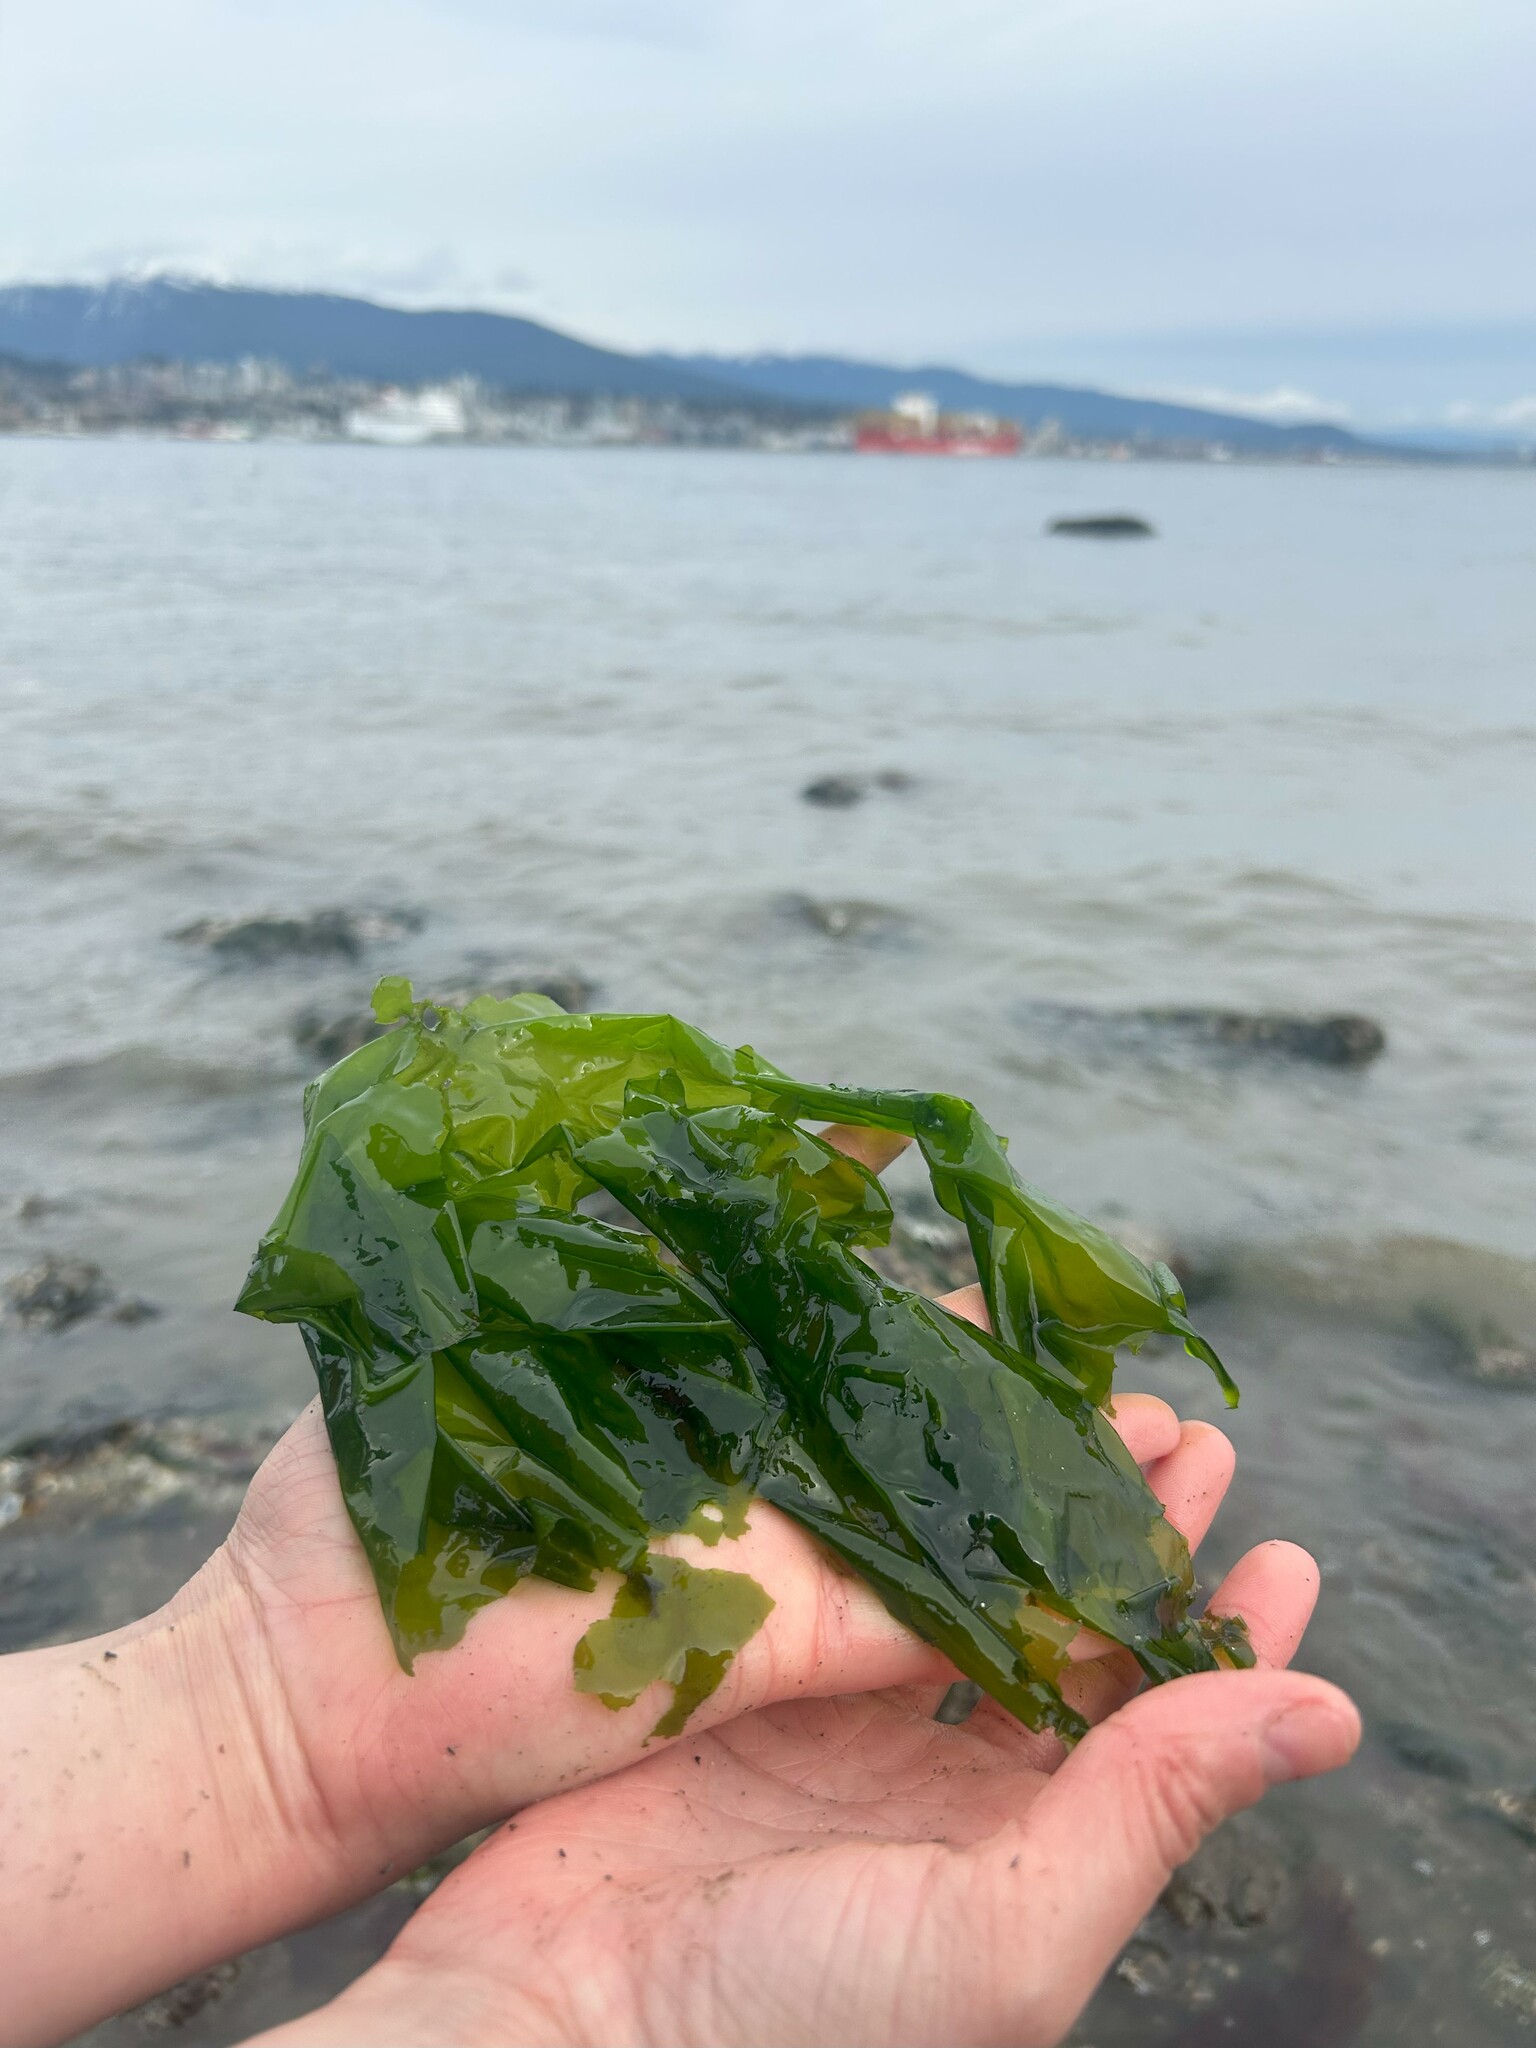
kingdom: Plantae
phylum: Chlorophyta
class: Ulvophyceae
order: Ulvales
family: Ulvaceae
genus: Ulva
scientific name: Ulva
